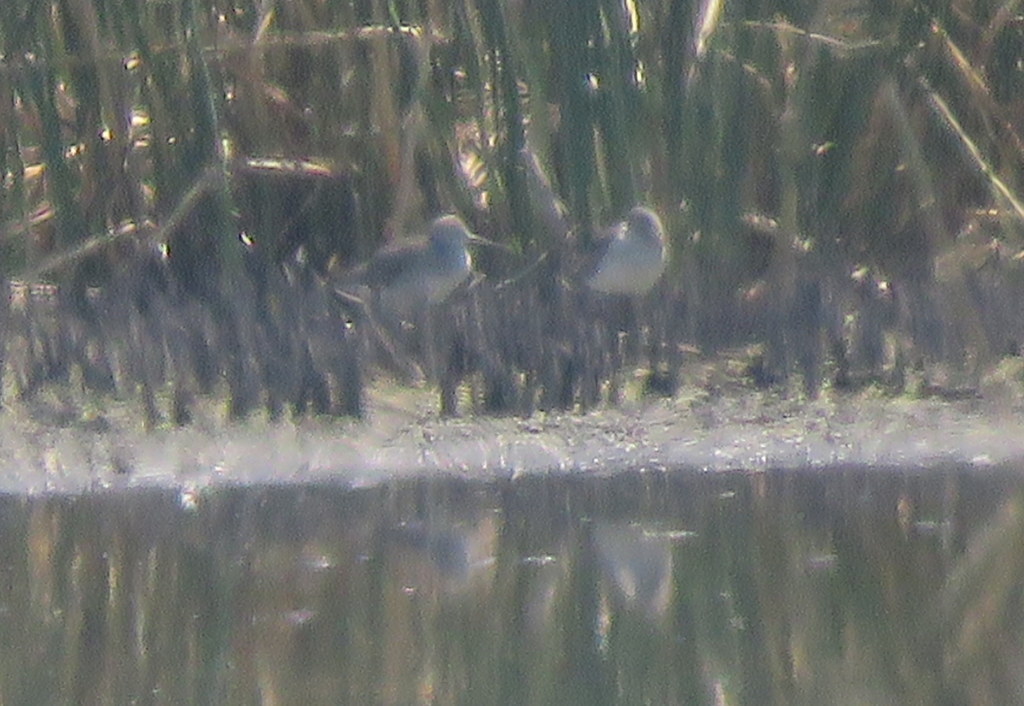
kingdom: Animalia
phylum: Chordata
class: Aves
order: Charadriiformes
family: Scolopacidae
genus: Tringa
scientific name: Tringa melanoleuca
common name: Greater yellowlegs
